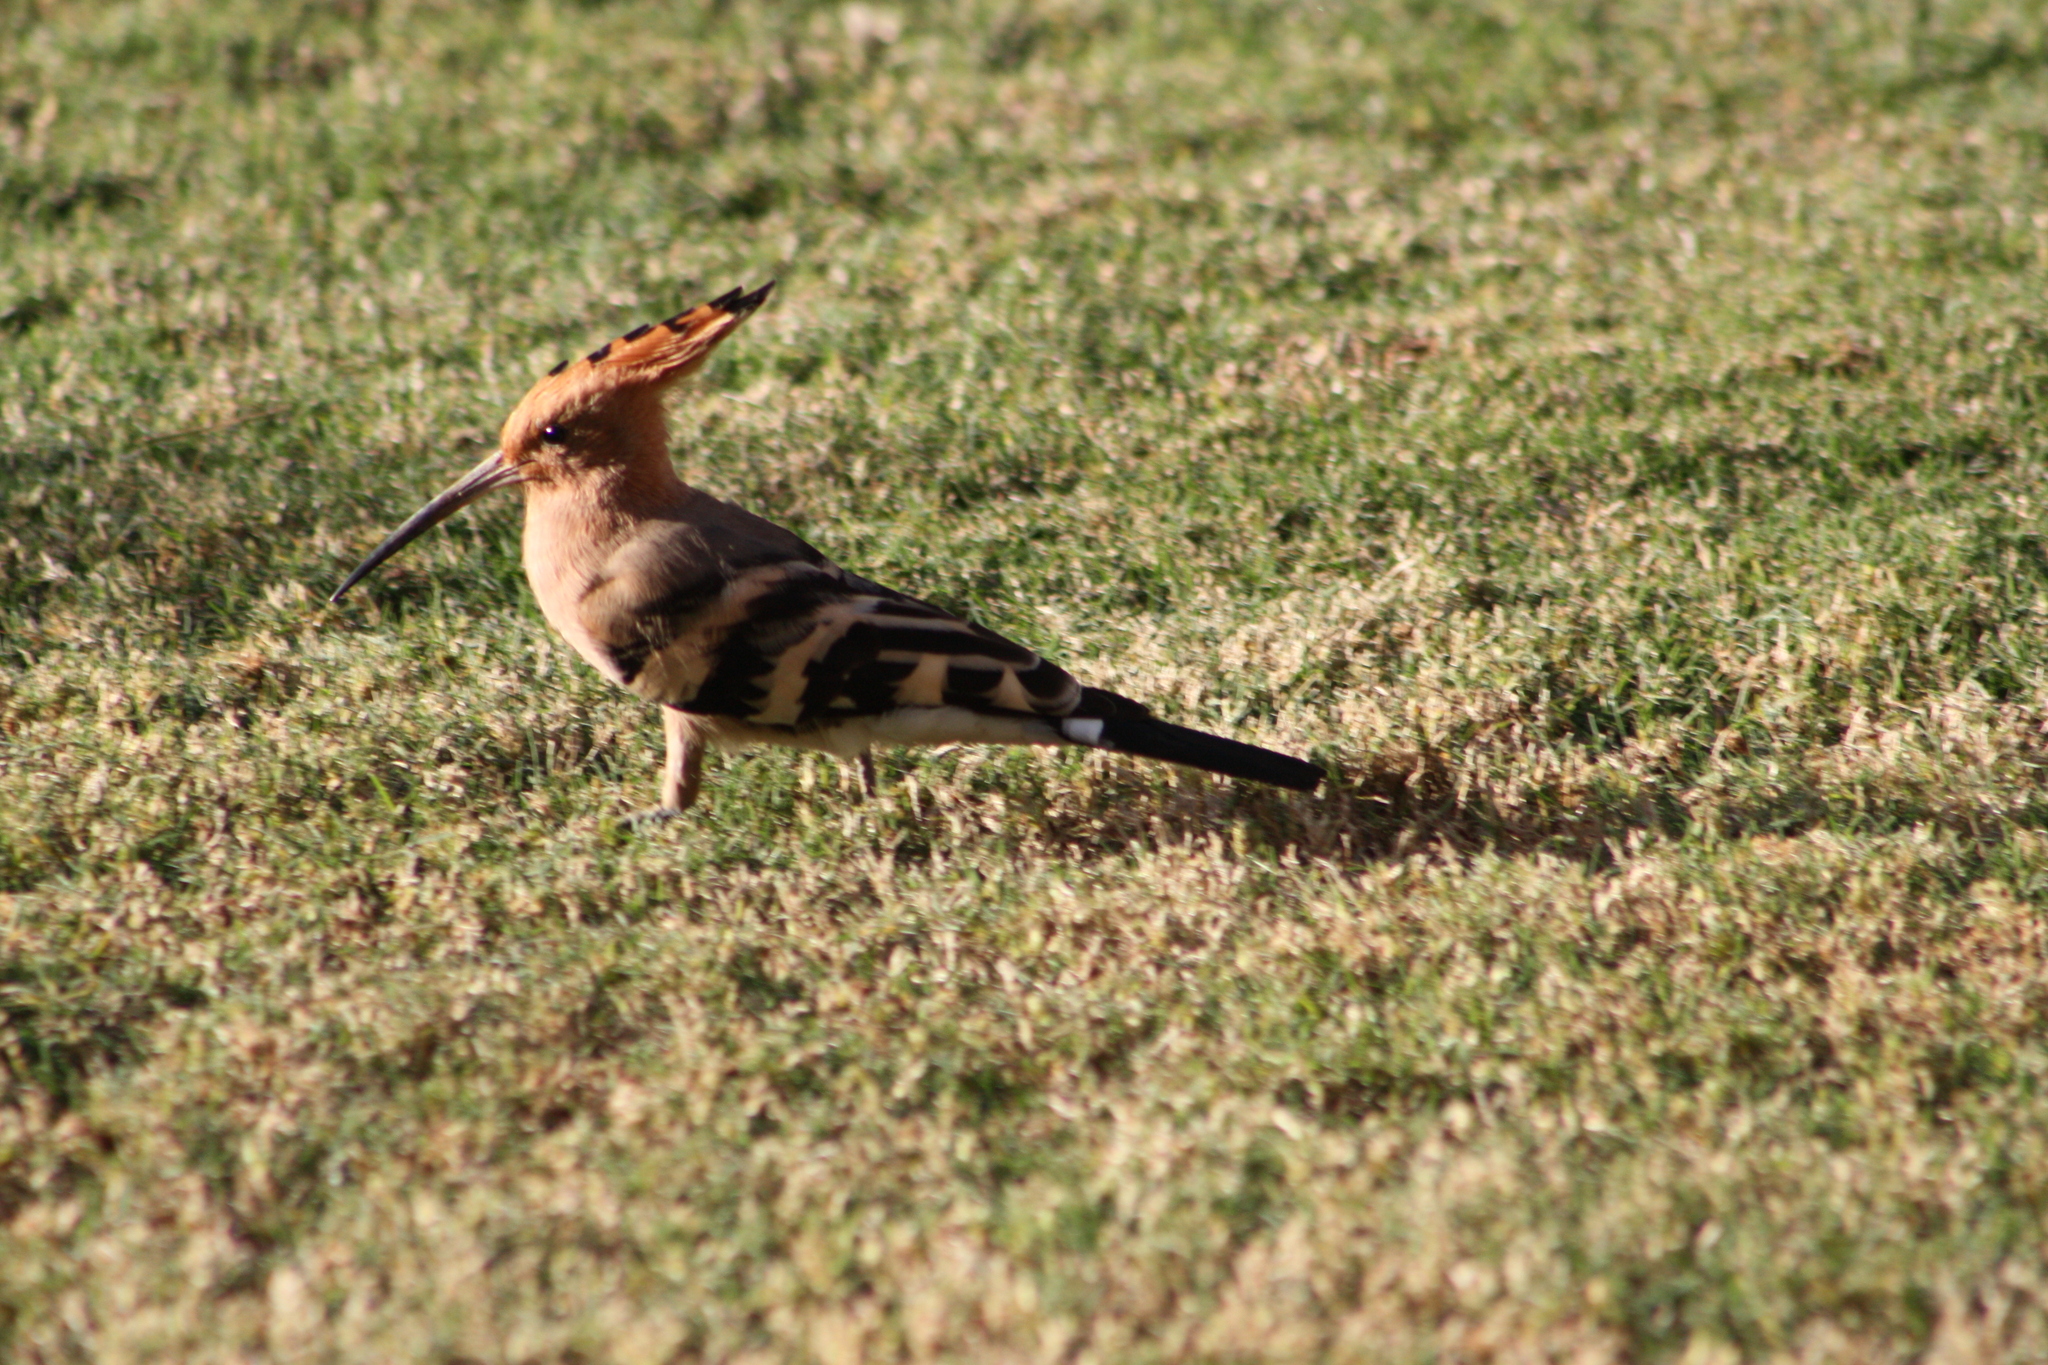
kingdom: Animalia
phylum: Chordata
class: Aves
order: Bucerotiformes
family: Upupidae
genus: Upupa
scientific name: Upupa epops
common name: Eurasian hoopoe
